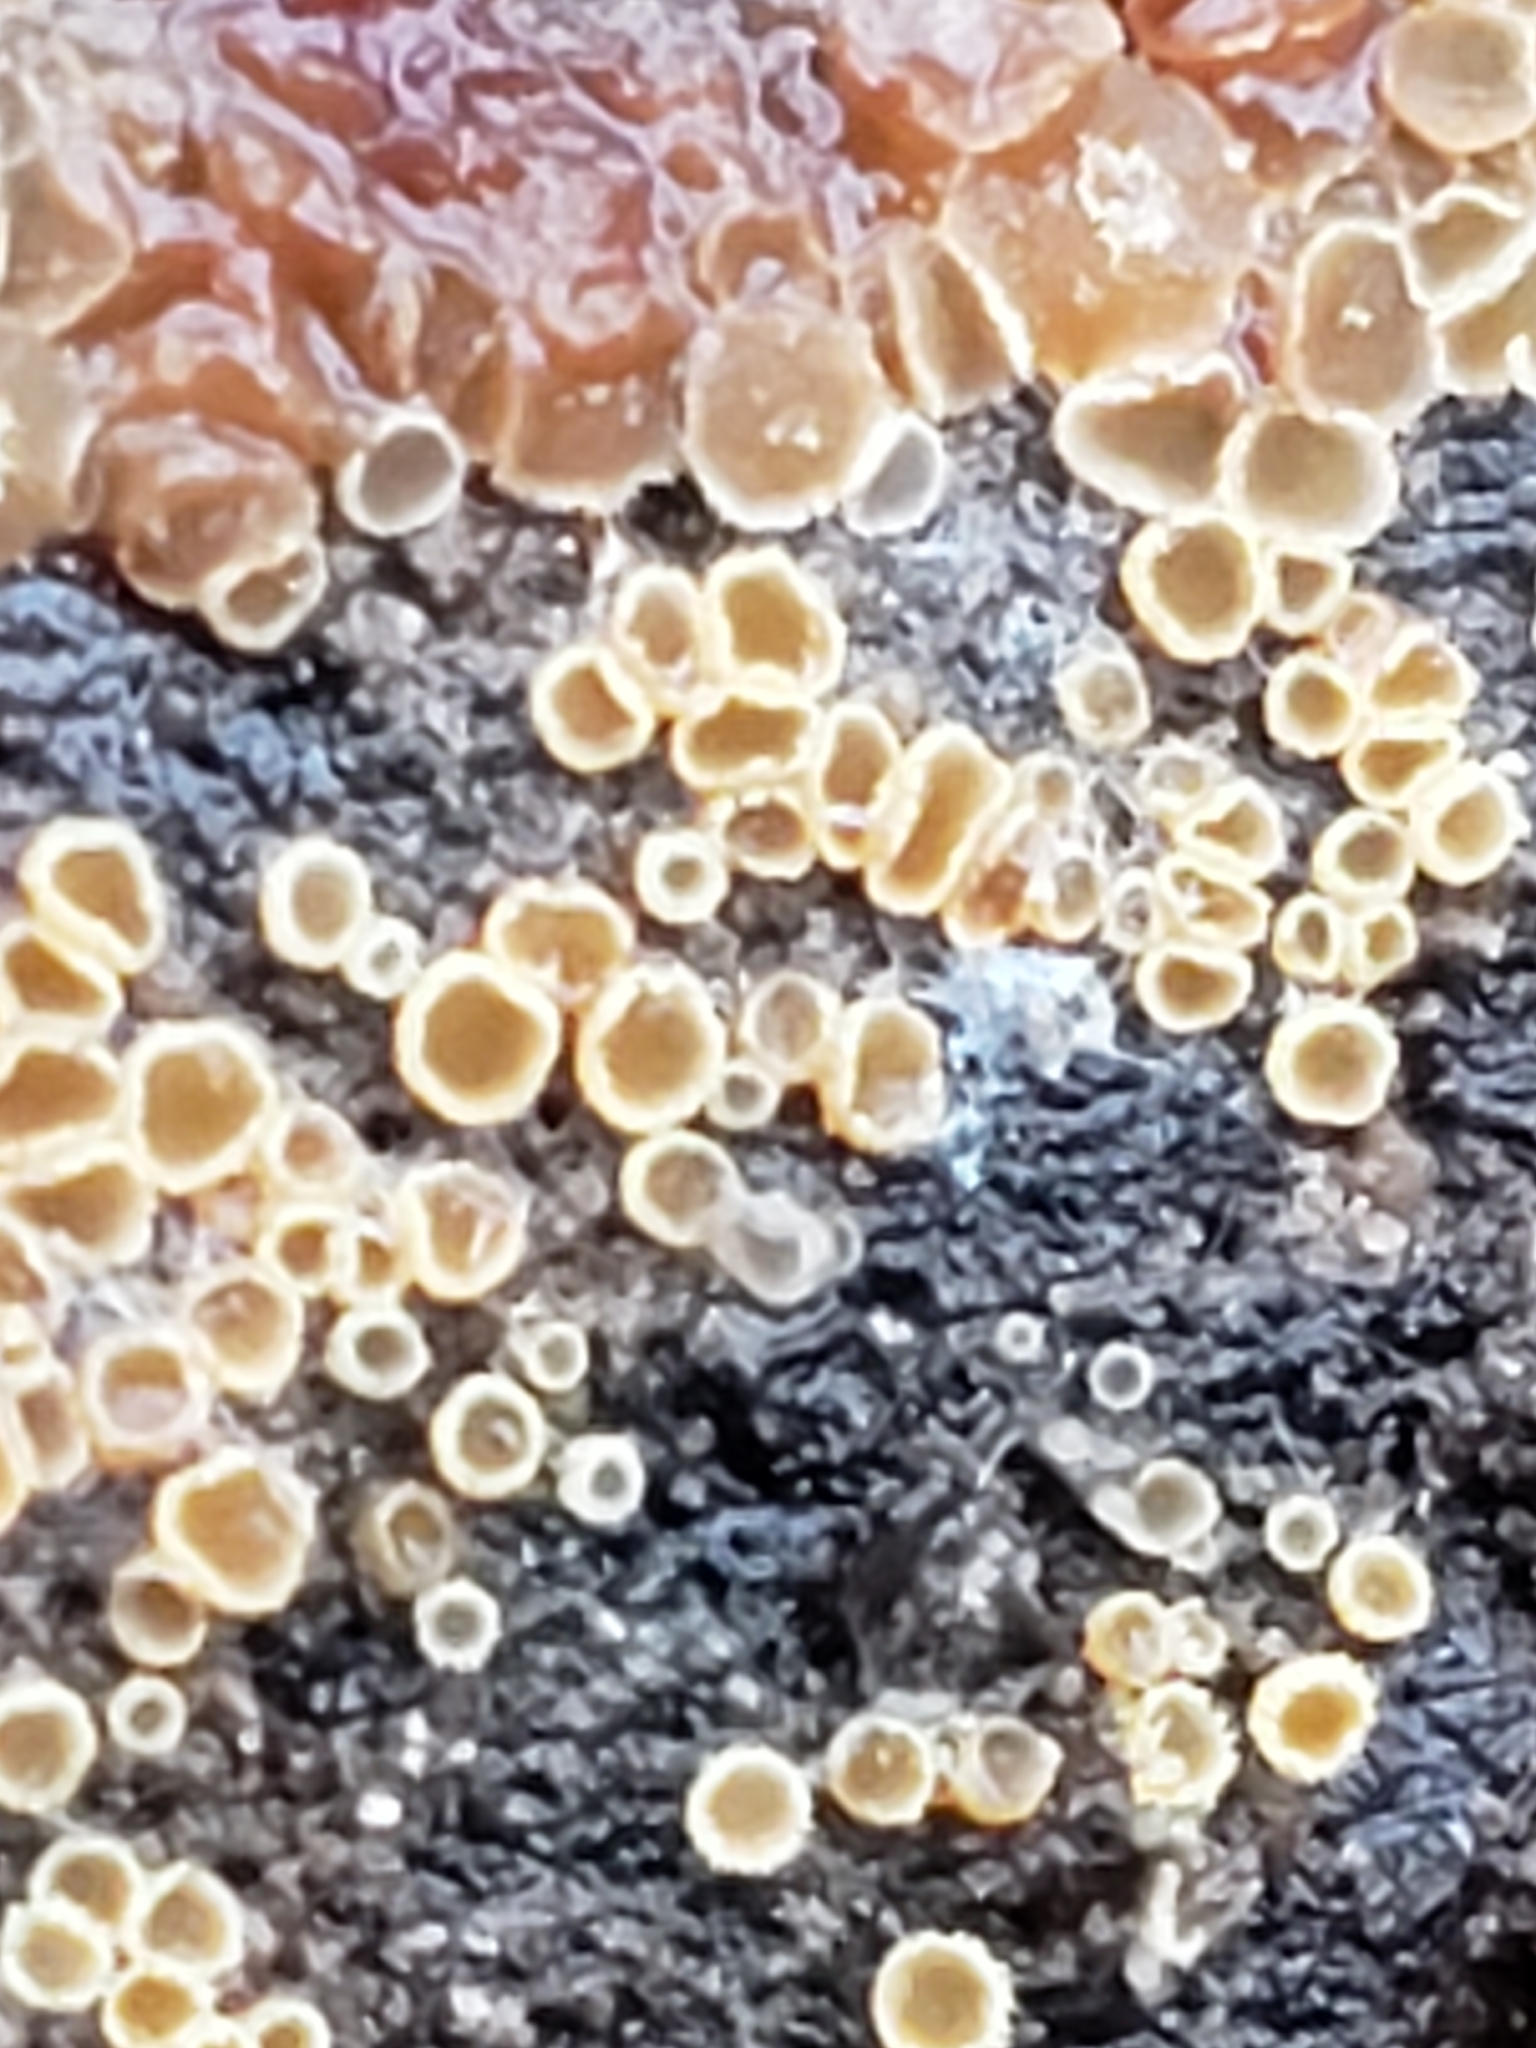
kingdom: Fungi
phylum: Ascomycota
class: Leotiomycetes
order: Helotiales
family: Arachnopezizaceae
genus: Arachnopeziza
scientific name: Arachnopeziza trabinelloides
